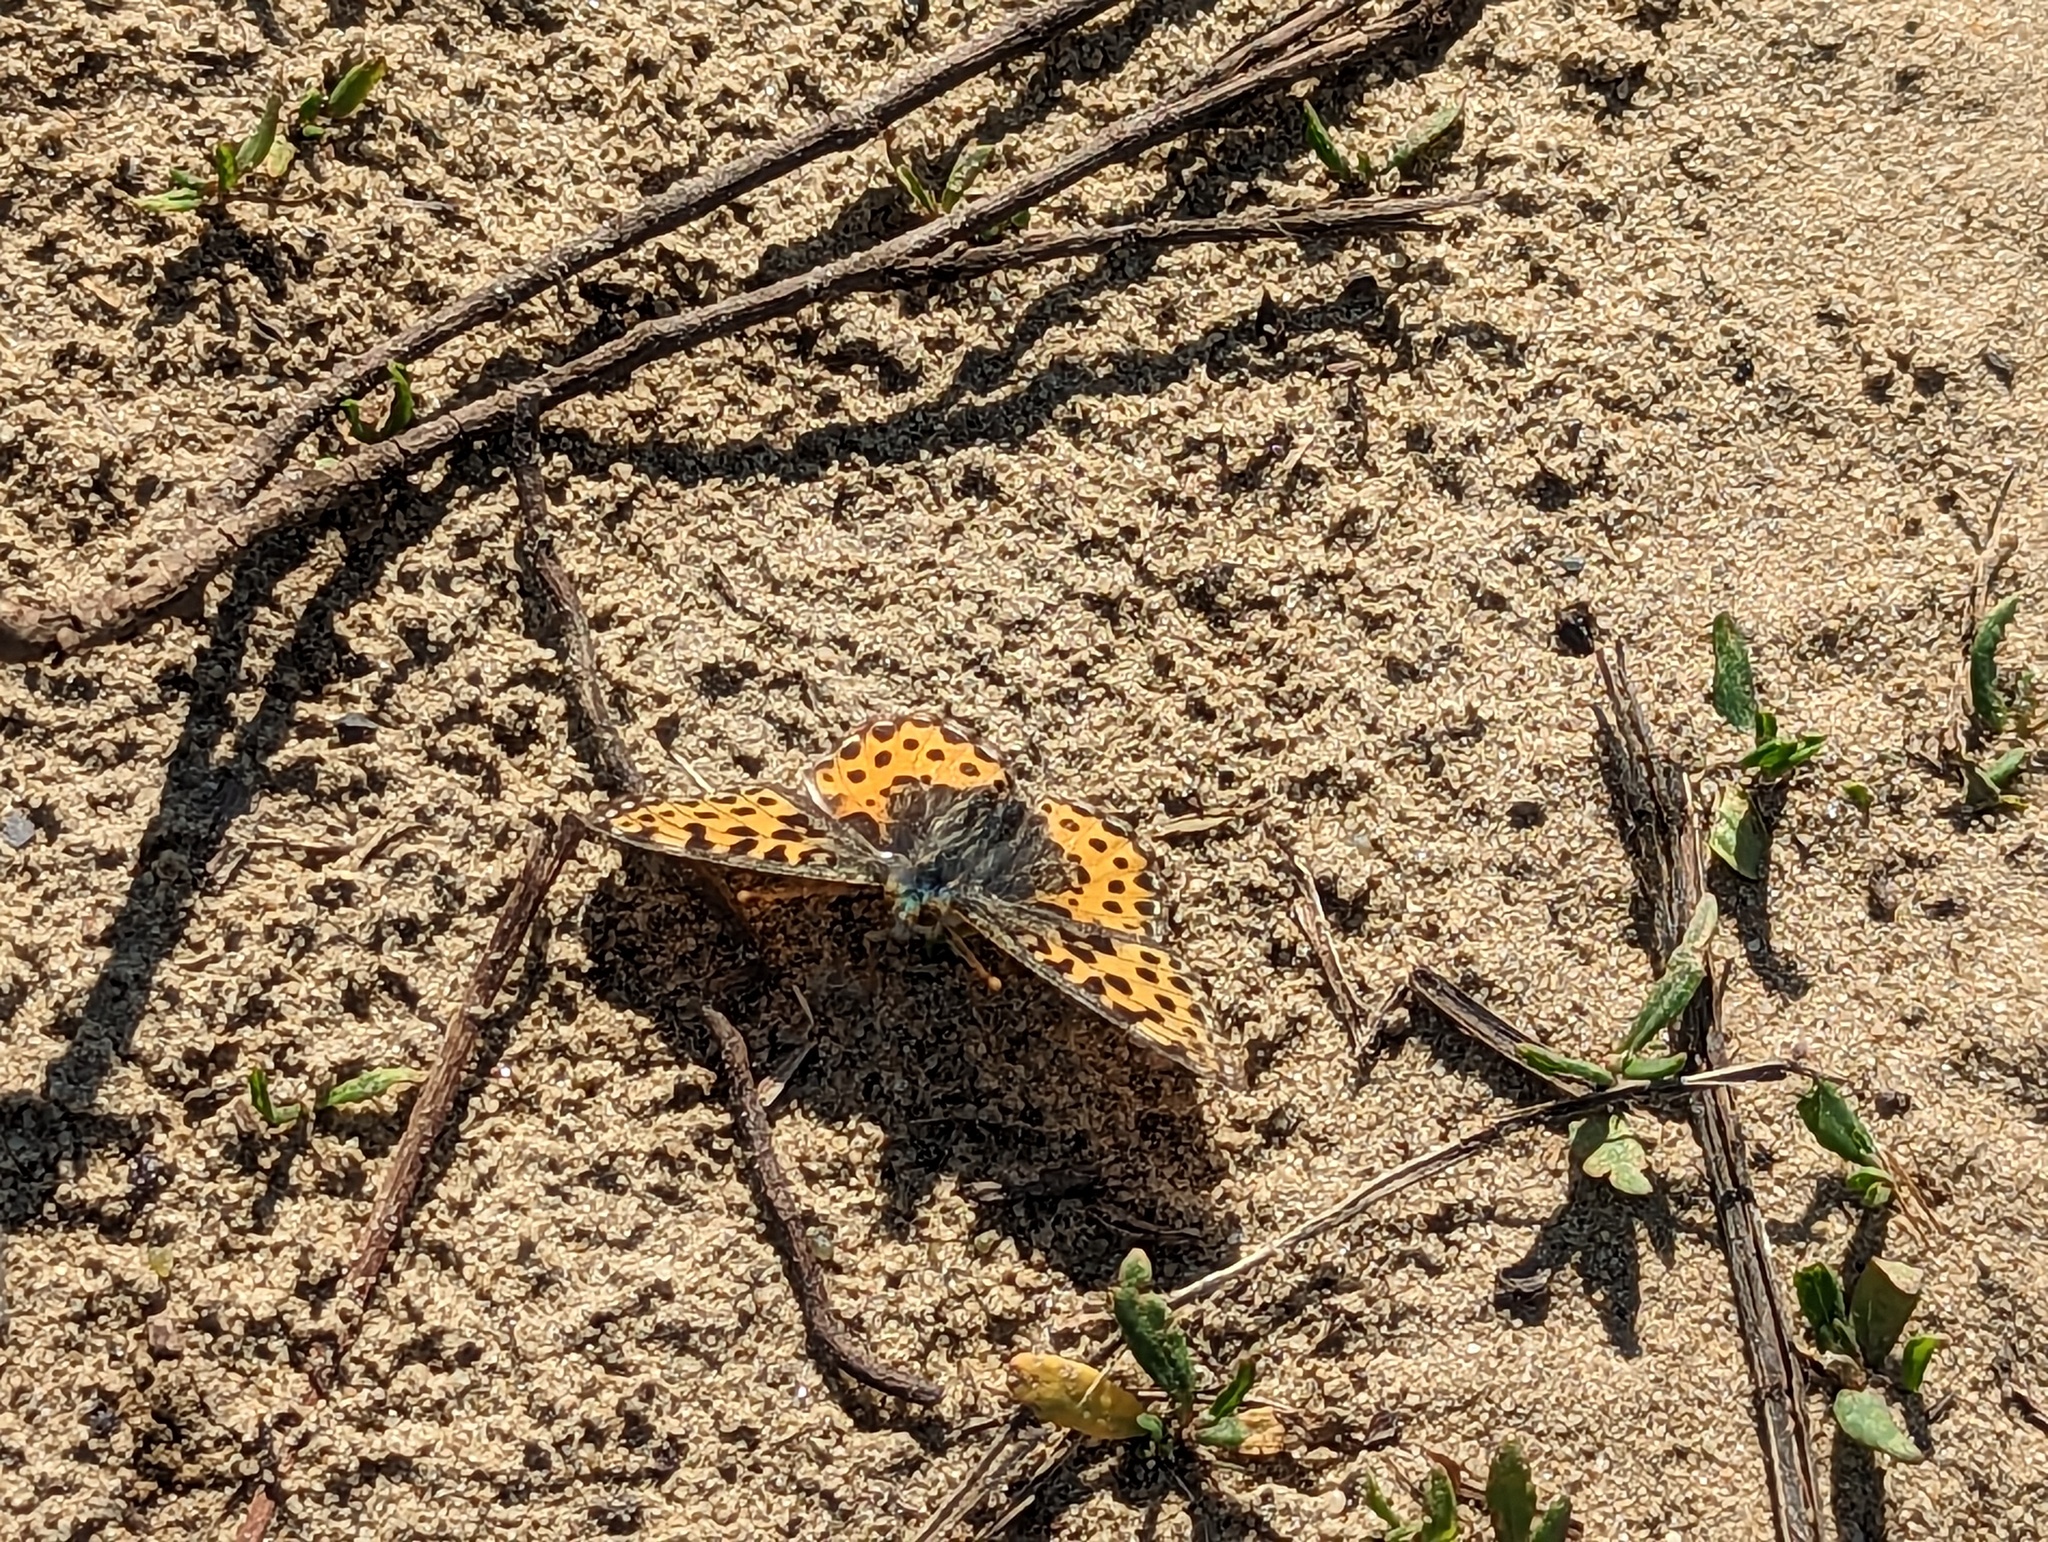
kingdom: Animalia
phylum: Arthropoda
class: Insecta
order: Lepidoptera
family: Nymphalidae
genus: Issoria
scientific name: Issoria lathonia
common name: Queen of spain fritillary
